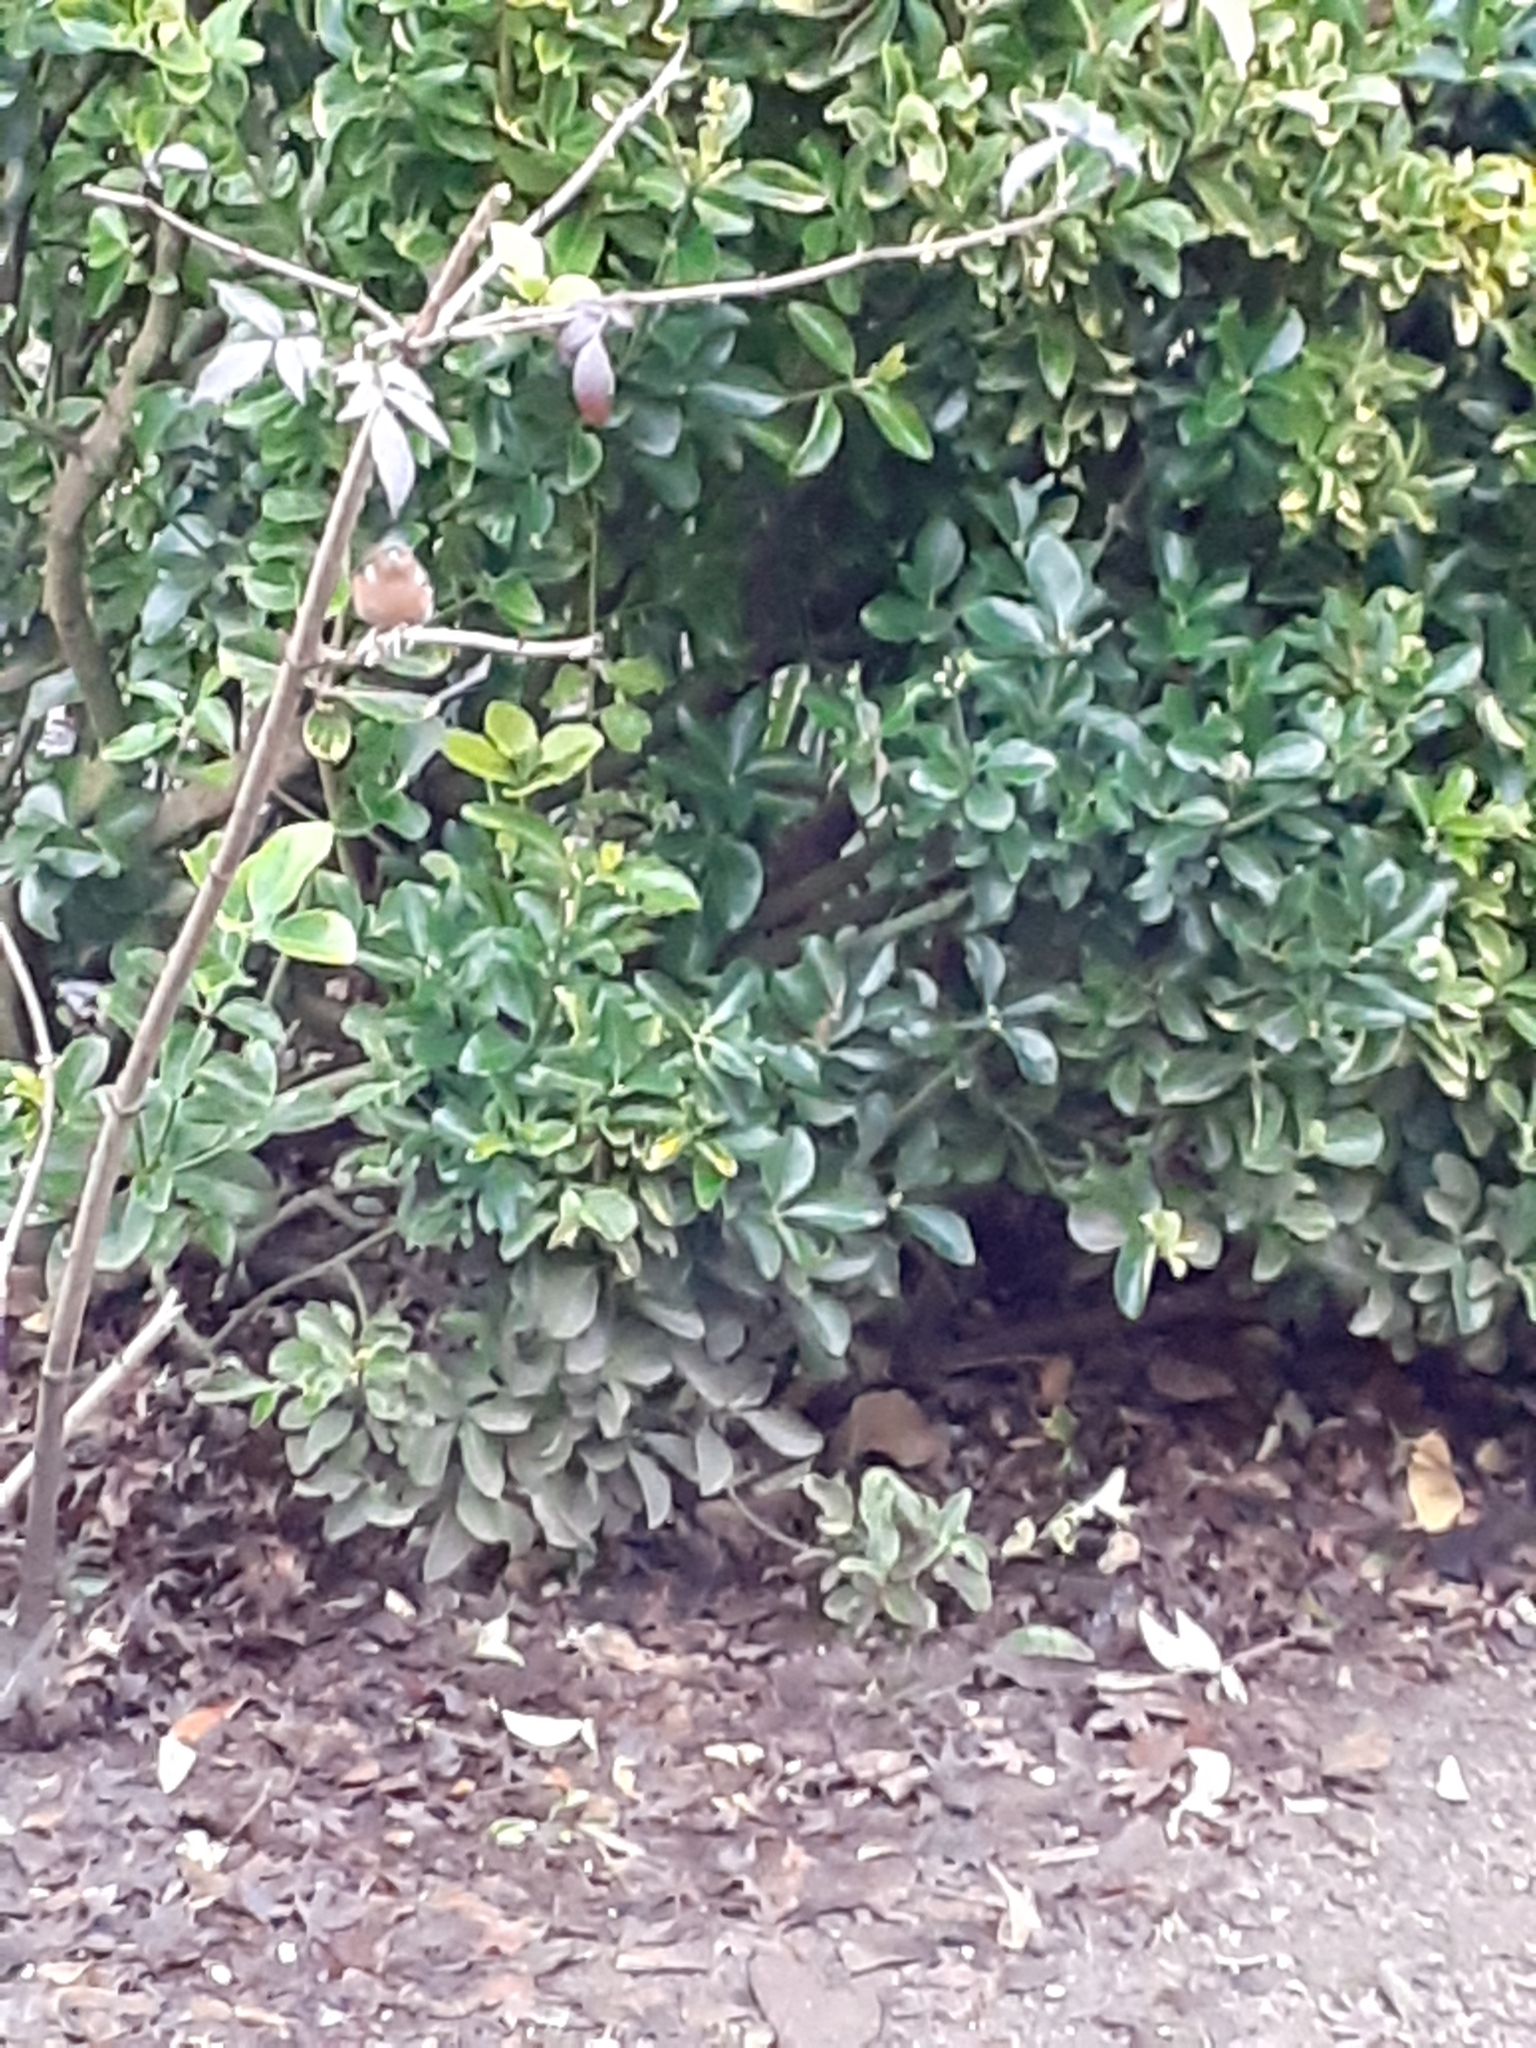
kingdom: Animalia
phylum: Chordata
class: Aves
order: Passeriformes
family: Fringillidae
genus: Fringilla
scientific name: Fringilla coelebs
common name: Common chaffinch
